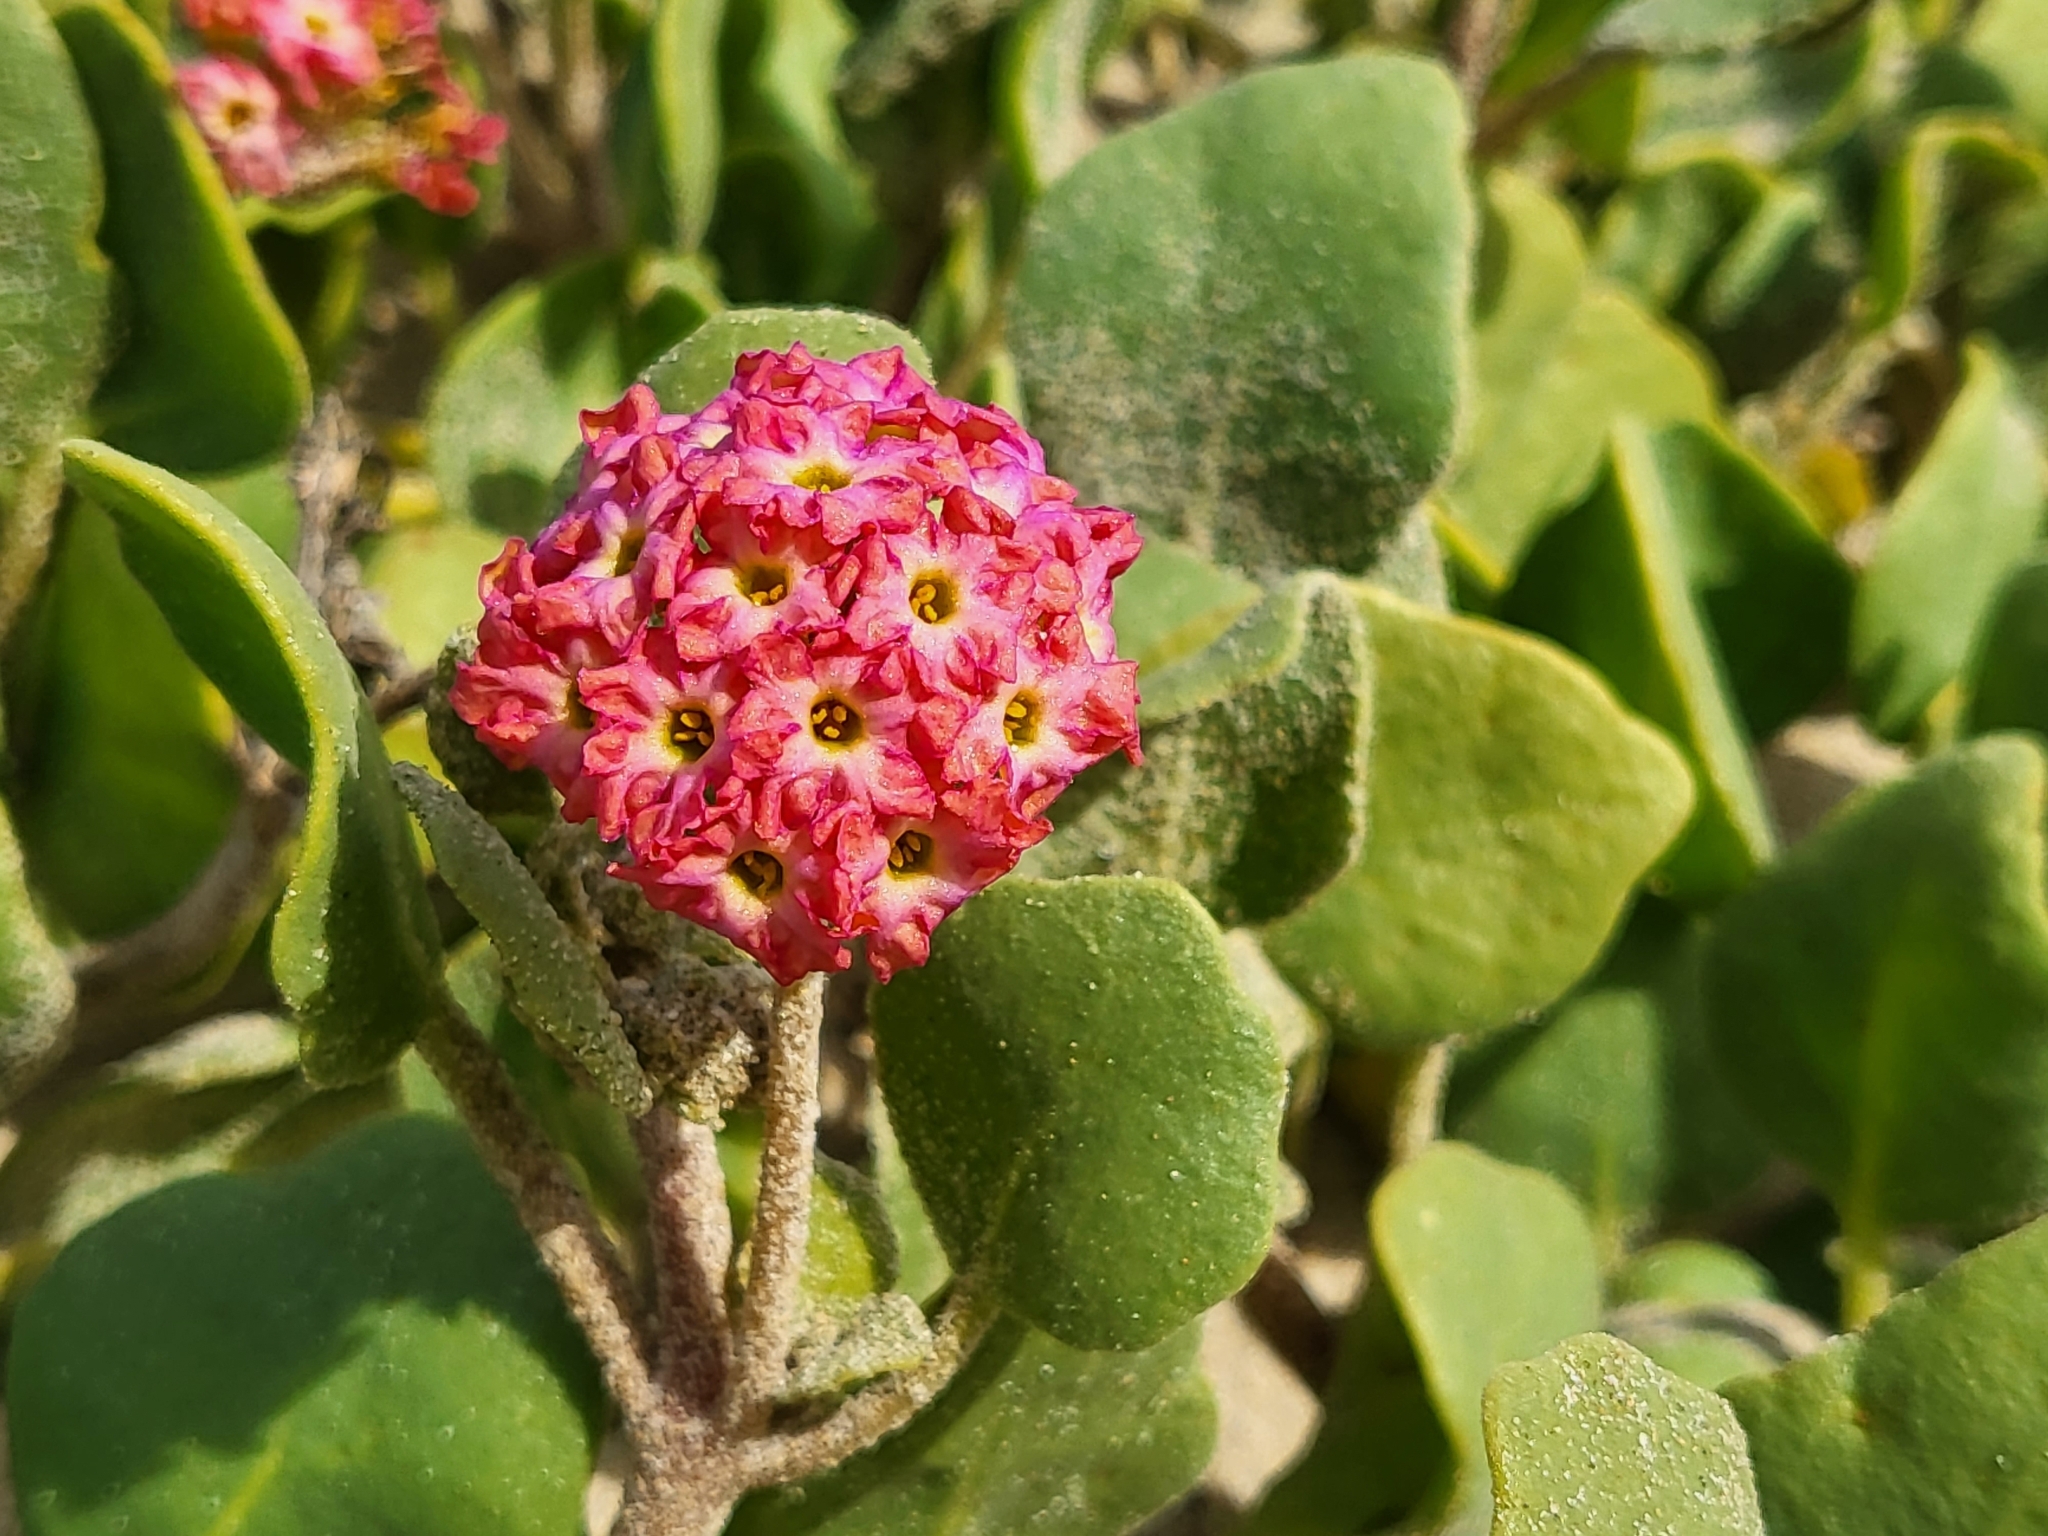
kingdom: Plantae
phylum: Tracheophyta
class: Magnoliopsida
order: Caryophyllales
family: Nyctaginaceae
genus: Abronia
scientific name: Abronia
